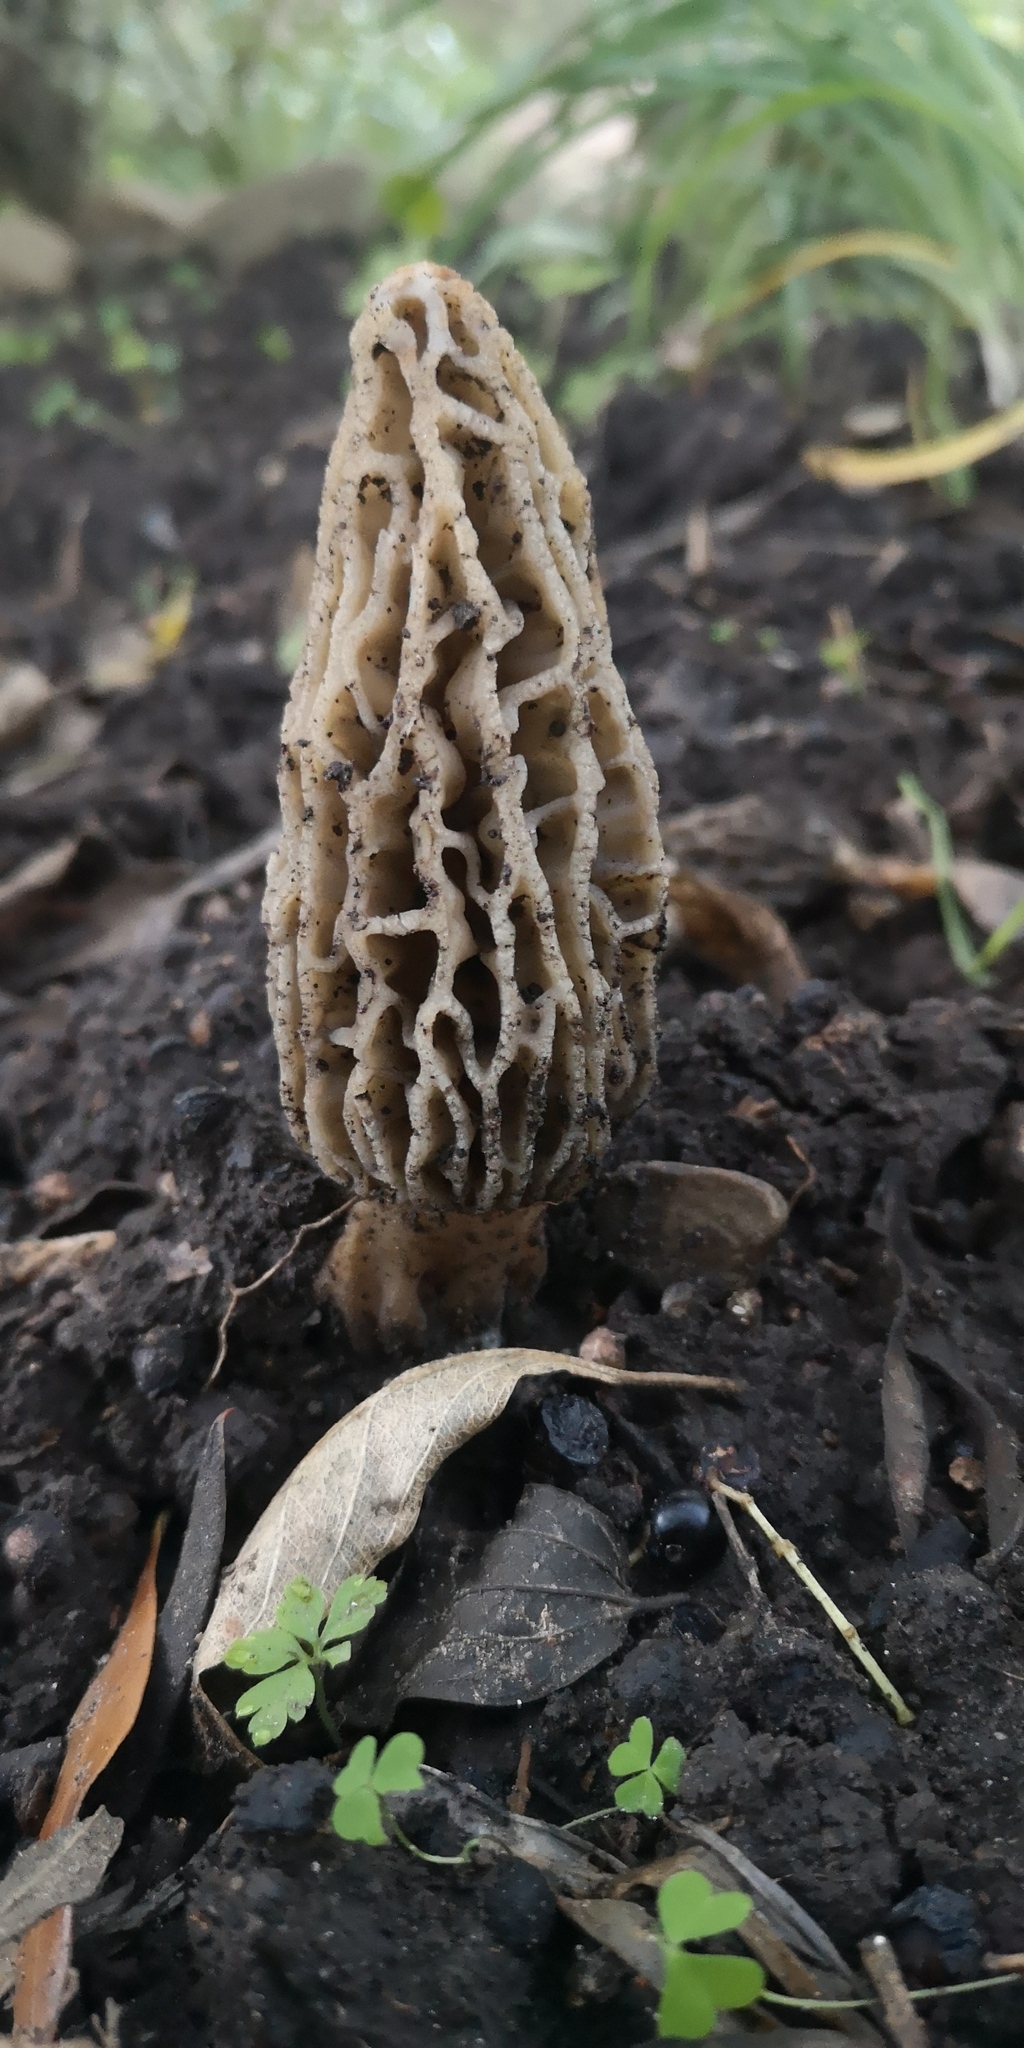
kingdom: Fungi
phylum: Ascomycota
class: Pezizomycetes
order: Pezizales
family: Morchellaceae
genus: Morchella
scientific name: Morchella rufobrunnea
